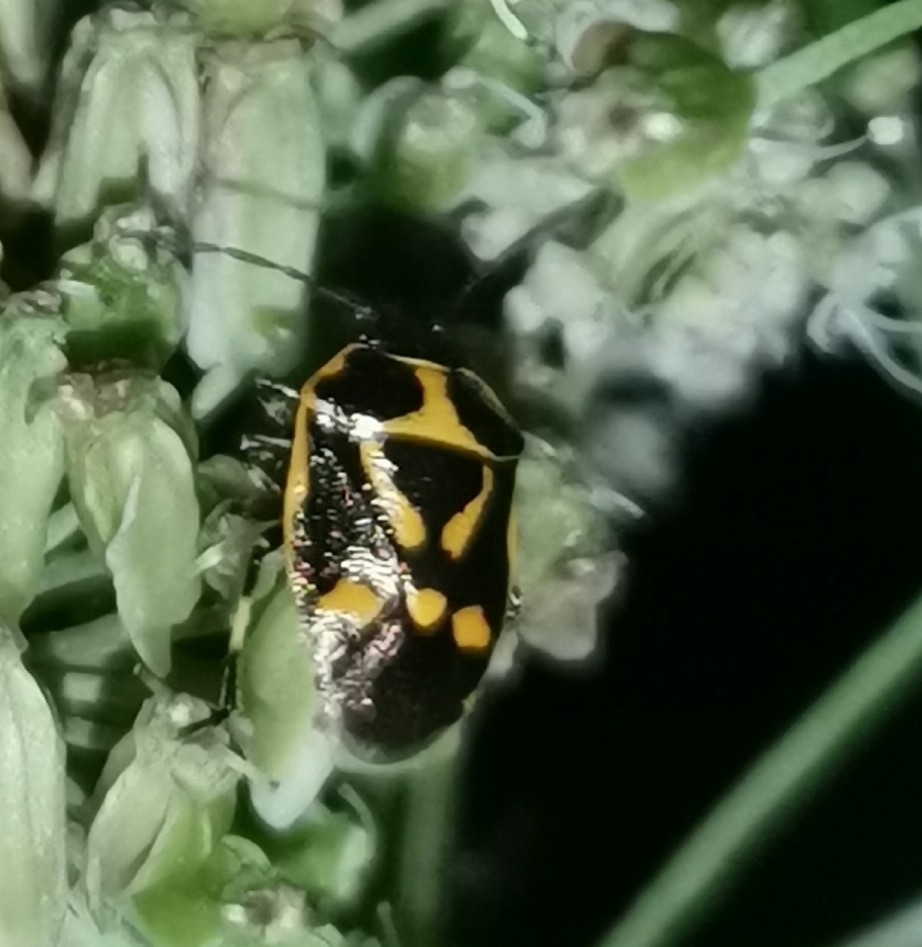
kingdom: Animalia
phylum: Arthropoda
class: Insecta
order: Hemiptera
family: Pentatomidae
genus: Eurydema
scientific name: Eurydema oleracea
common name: Cabbage bug
